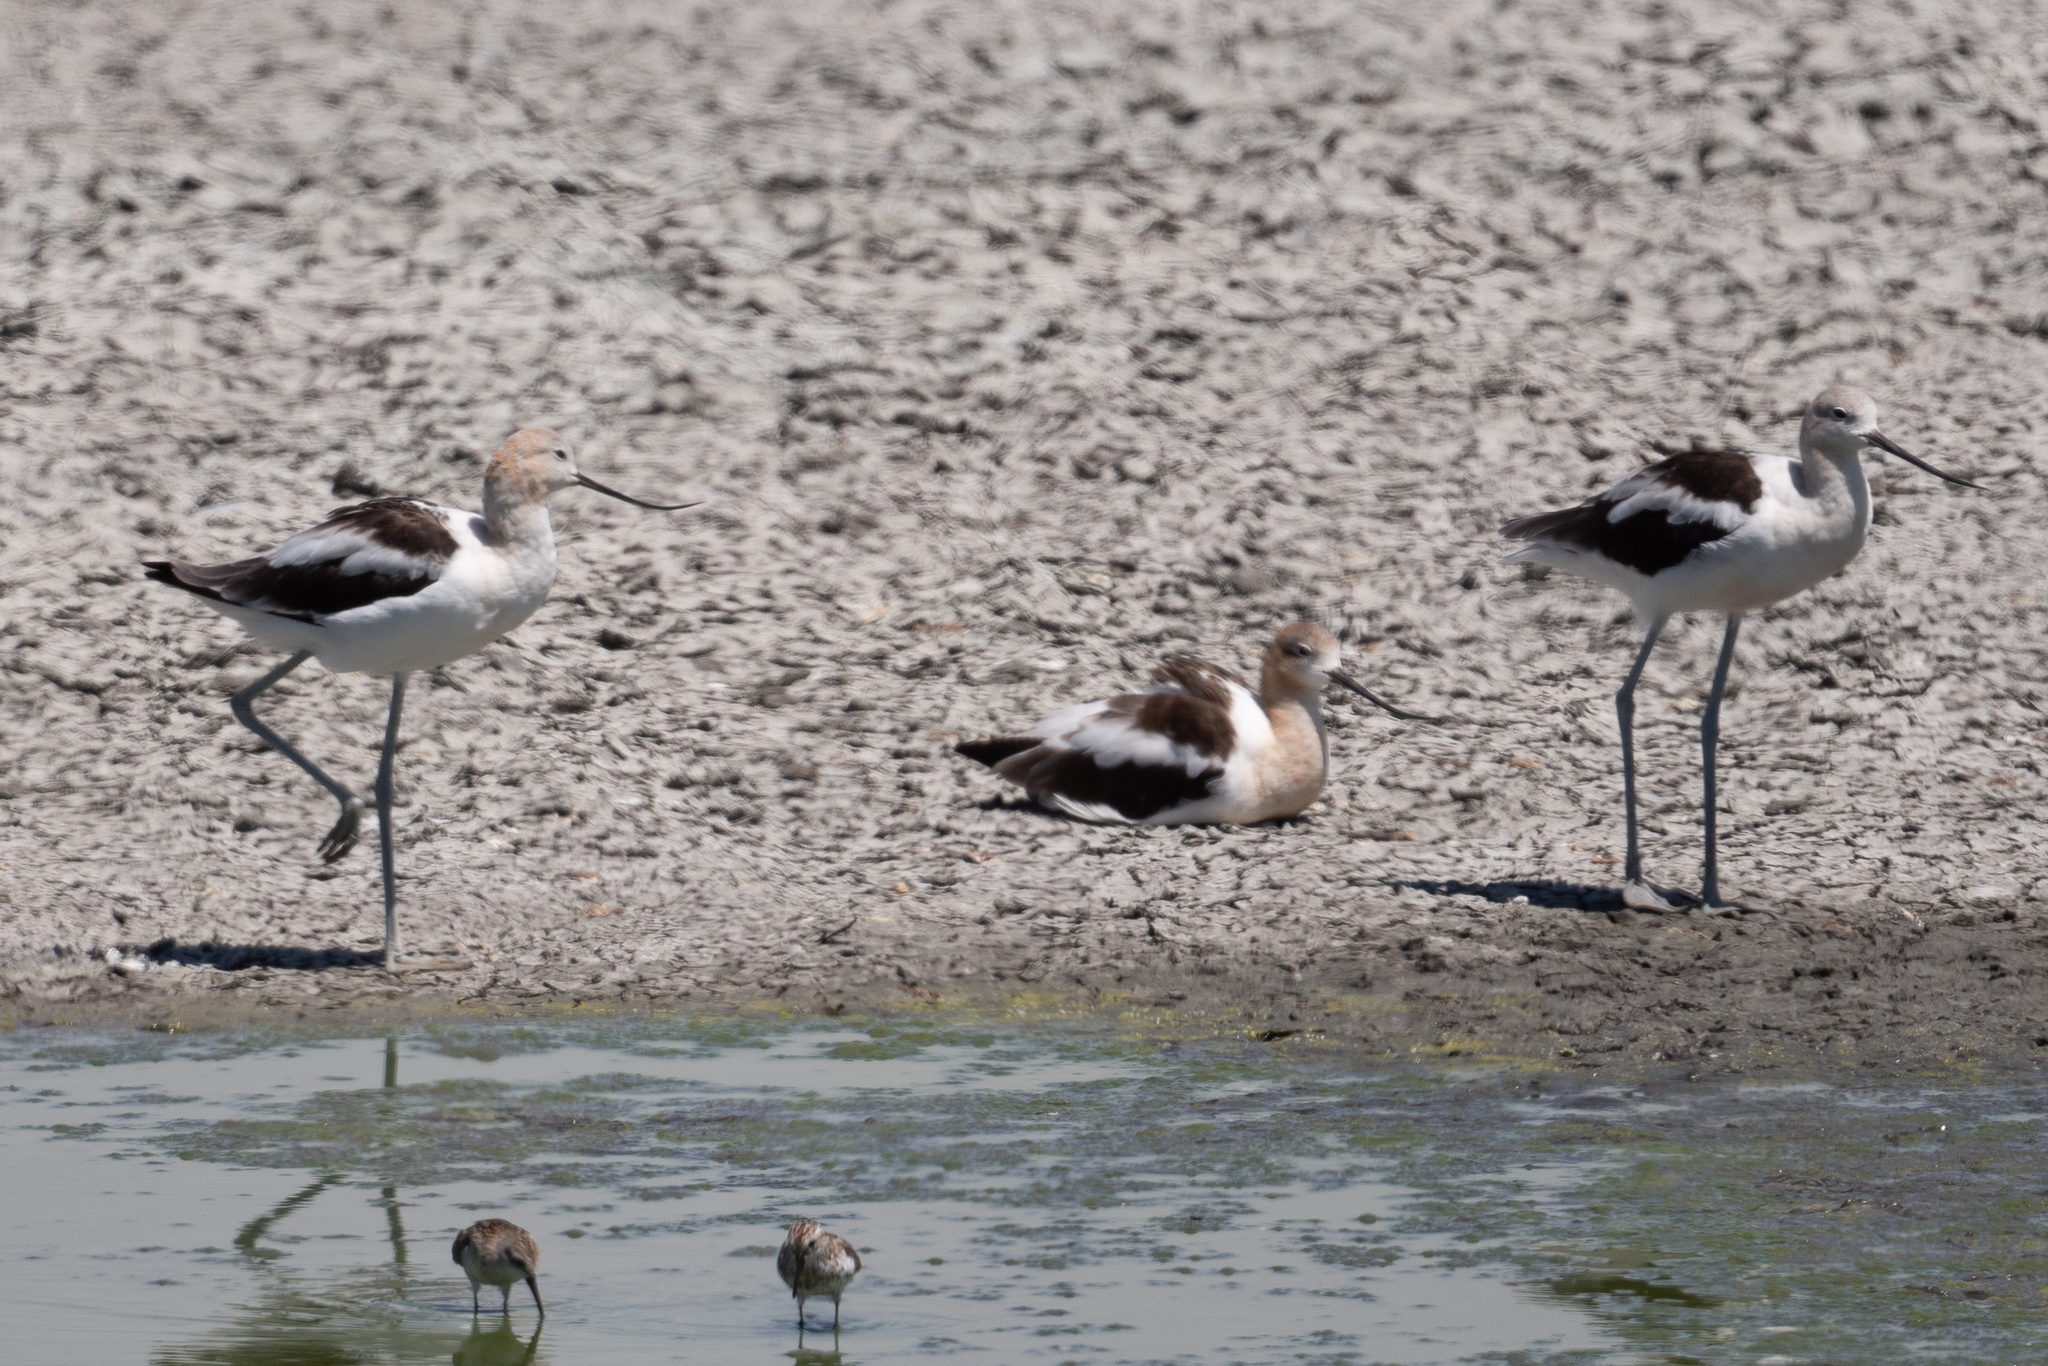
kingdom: Animalia
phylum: Chordata
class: Aves
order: Charadriiformes
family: Recurvirostridae
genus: Recurvirostra
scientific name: Recurvirostra americana
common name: American avocet
